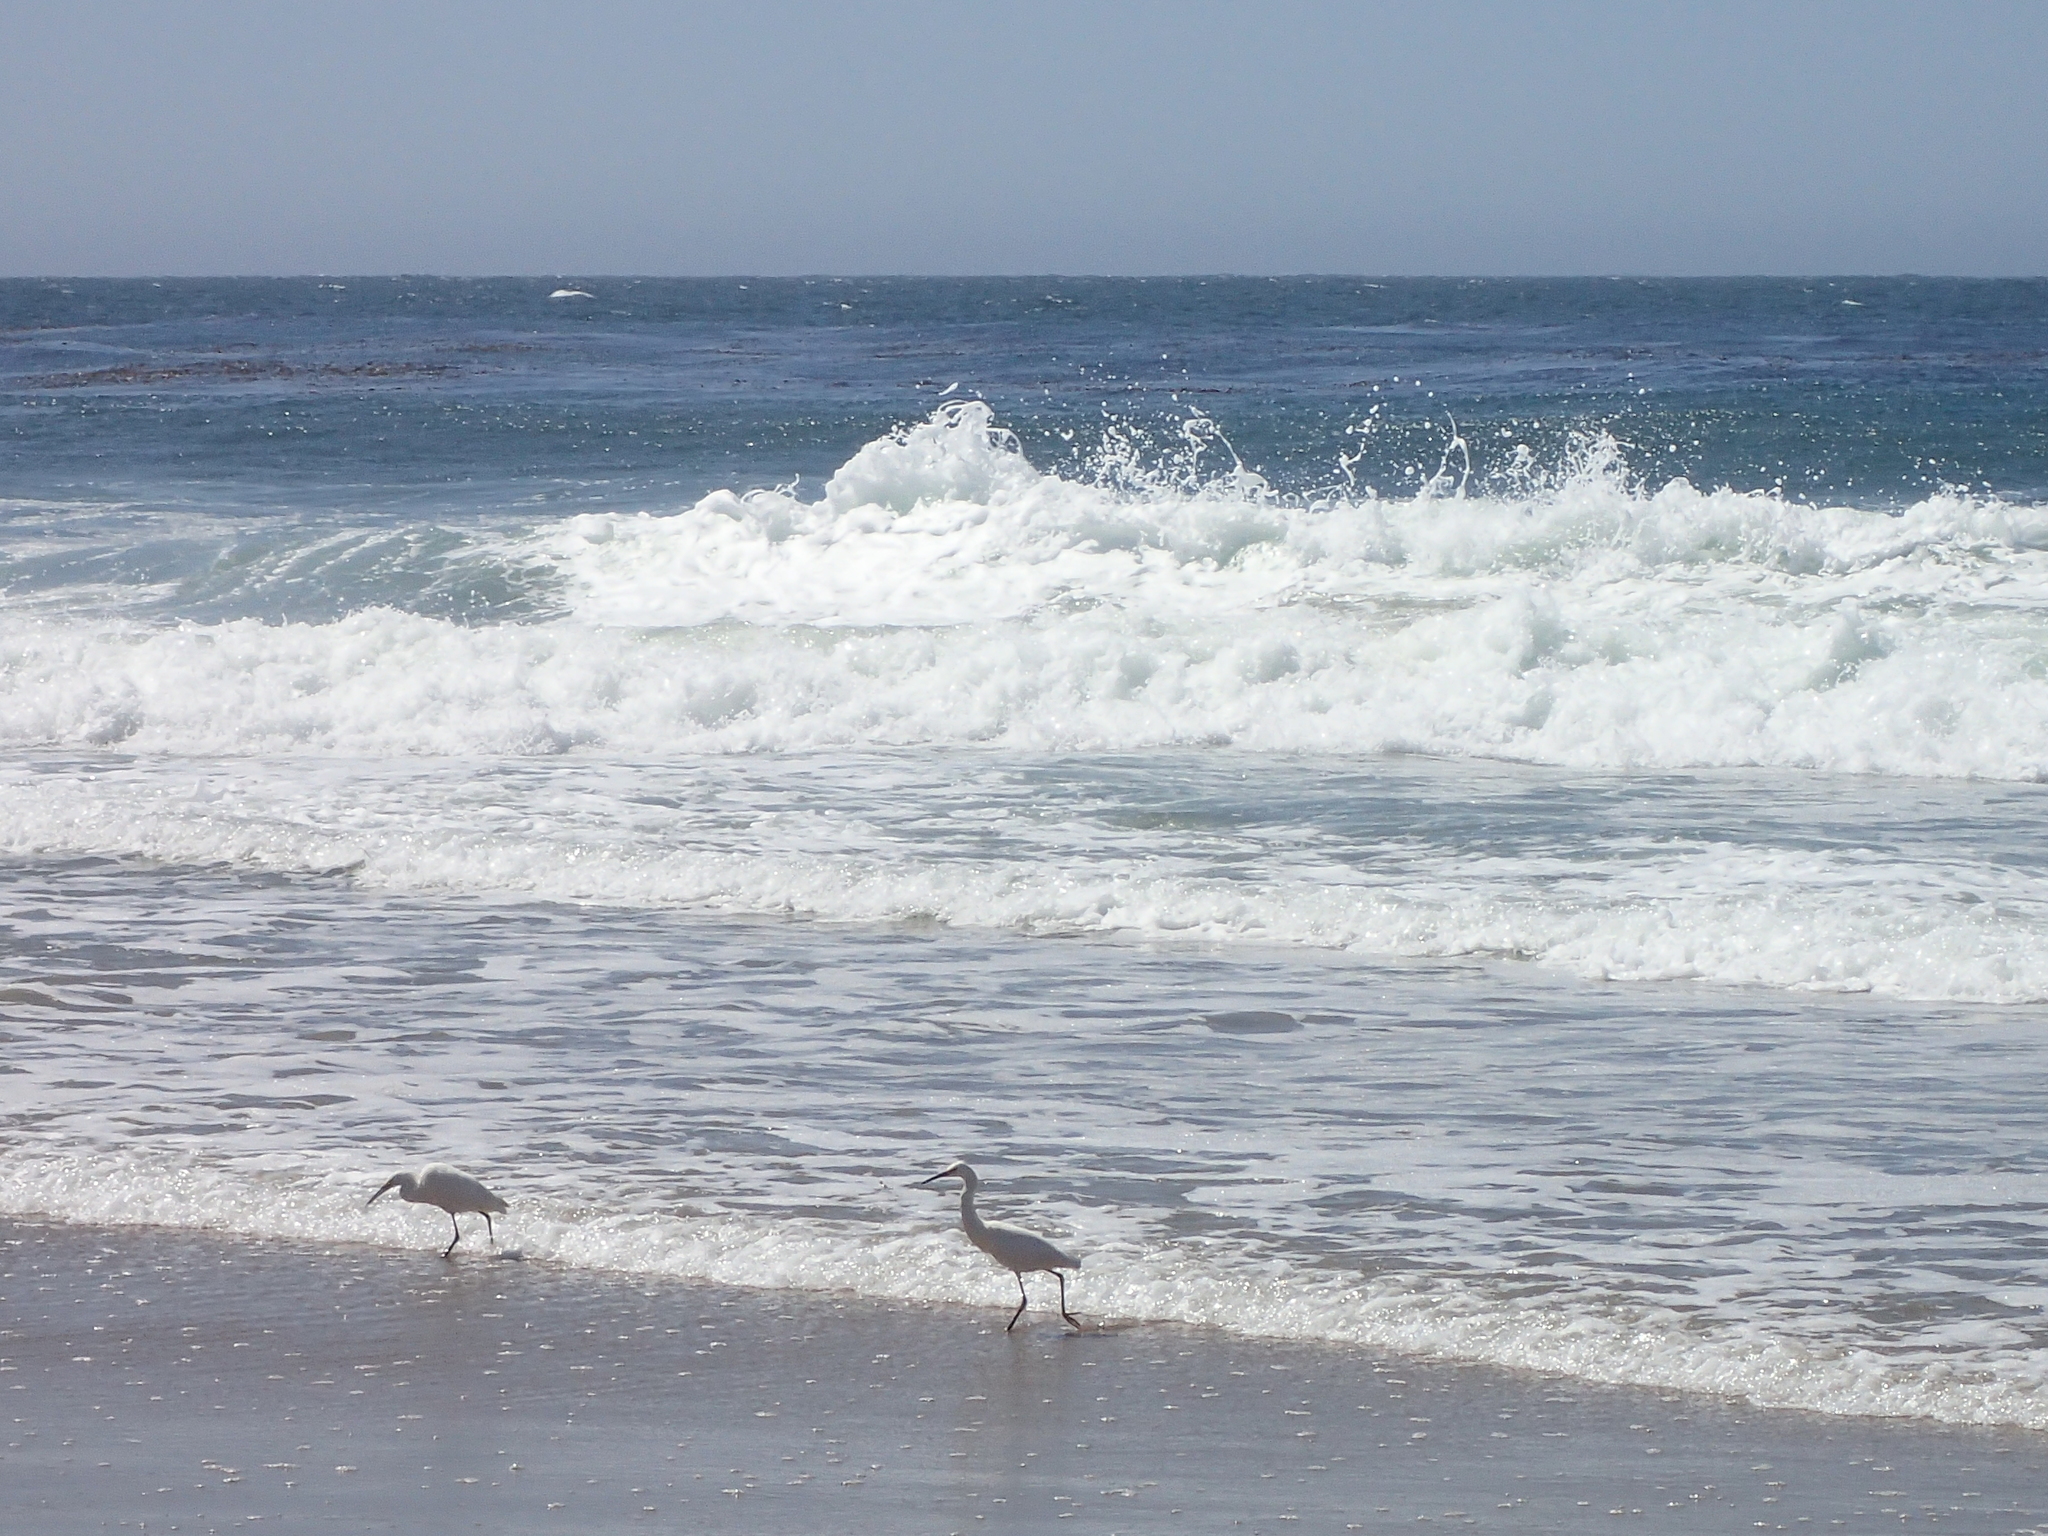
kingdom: Animalia
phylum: Chordata
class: Aves
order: Pelecaniformes
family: Ardeidae
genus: Egretta
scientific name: Egretta thula
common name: Snowy egret
